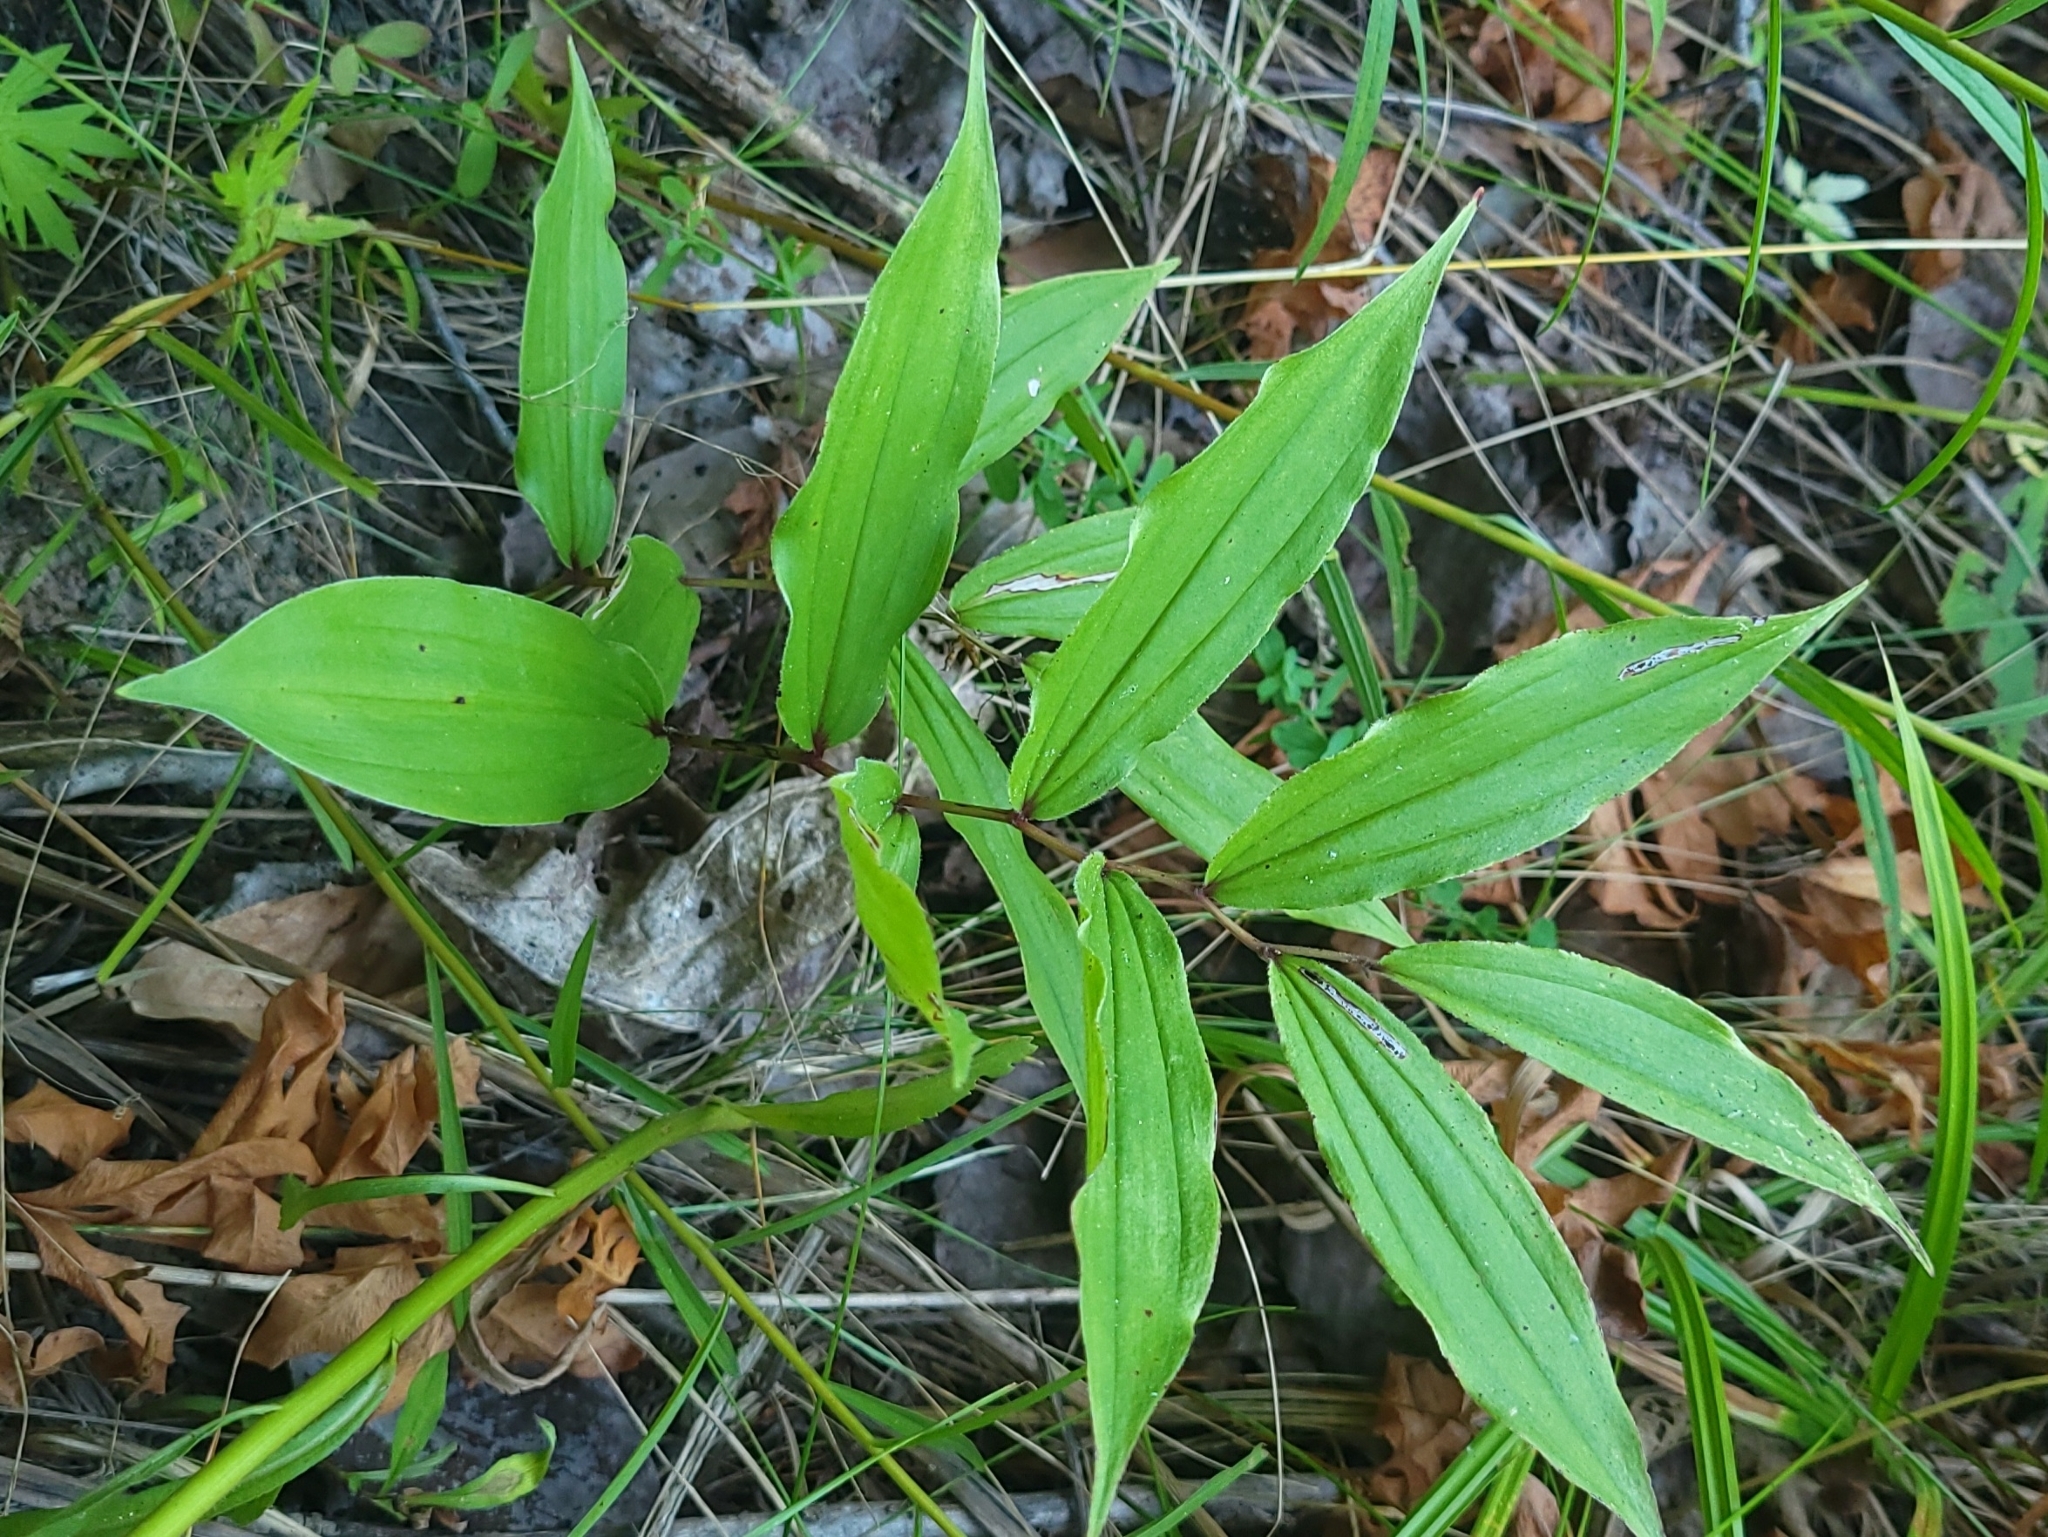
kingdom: Plantae
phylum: Tracheophyta
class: Liliopsida
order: Asparagales
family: Asparagaceae
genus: Maianthemum
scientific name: Maianthemum racemosum
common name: False spikenard
